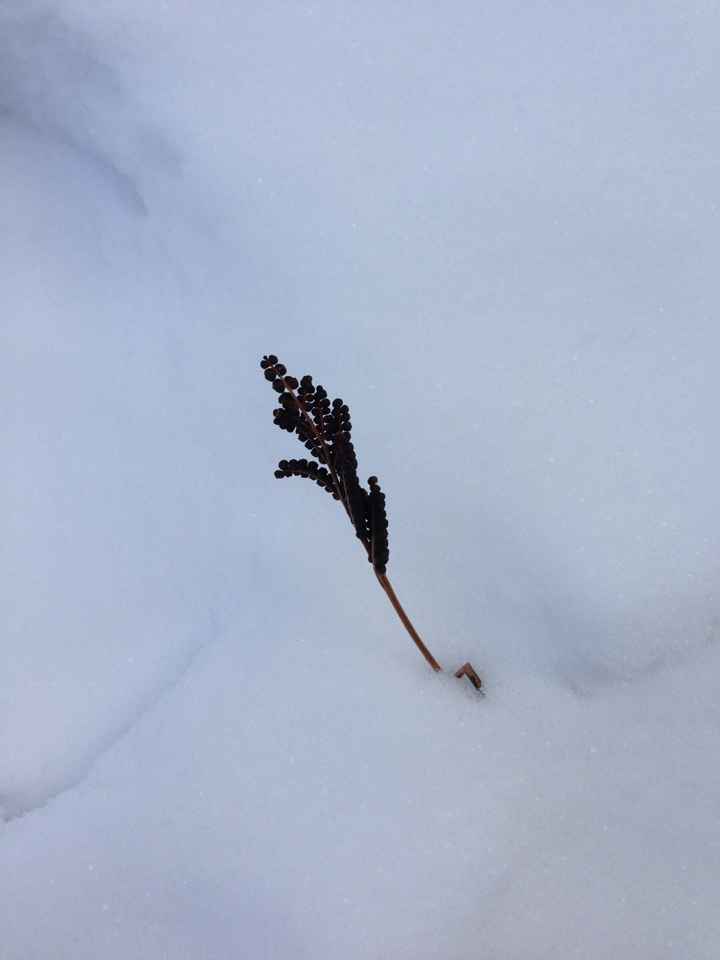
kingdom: Plantae
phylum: Tracheophyta
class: Polypodiopsida
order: Polypodiales
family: Onocleaceae
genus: Onoclea
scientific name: Onoclea sensibilis
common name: Sensitive fern
